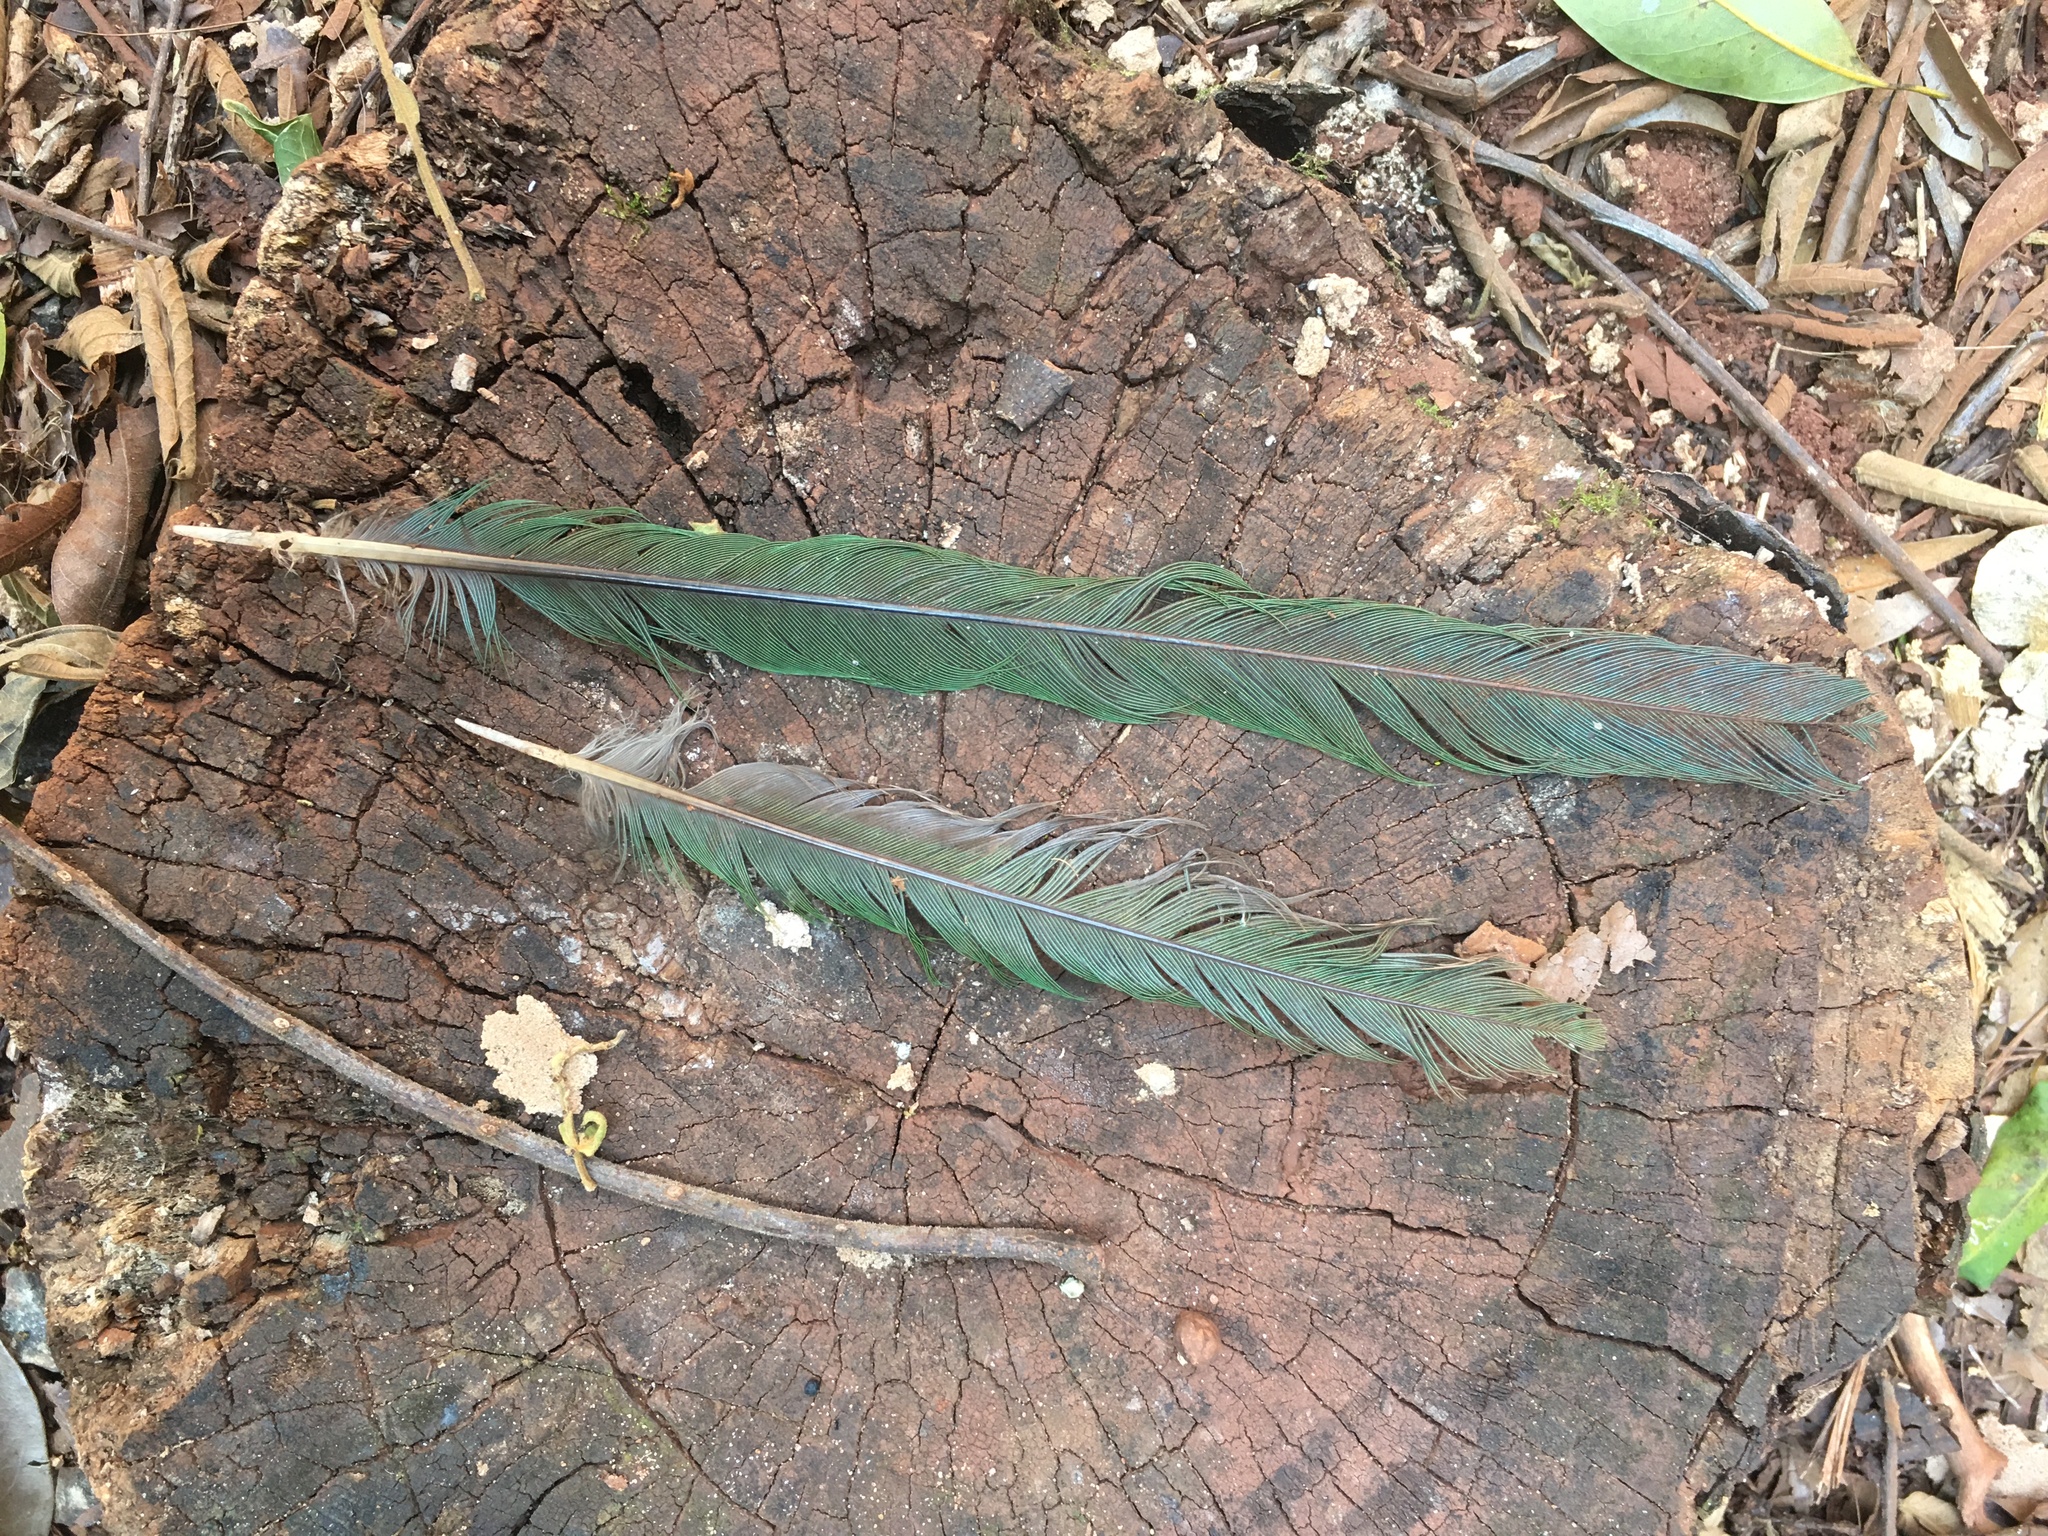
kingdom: Animalia
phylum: Chordata
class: Aves
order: Coraciiformes
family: Momotidae
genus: Baryphthengus
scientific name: Baryphthengus ruficapillus
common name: Rufous-capped motmot
